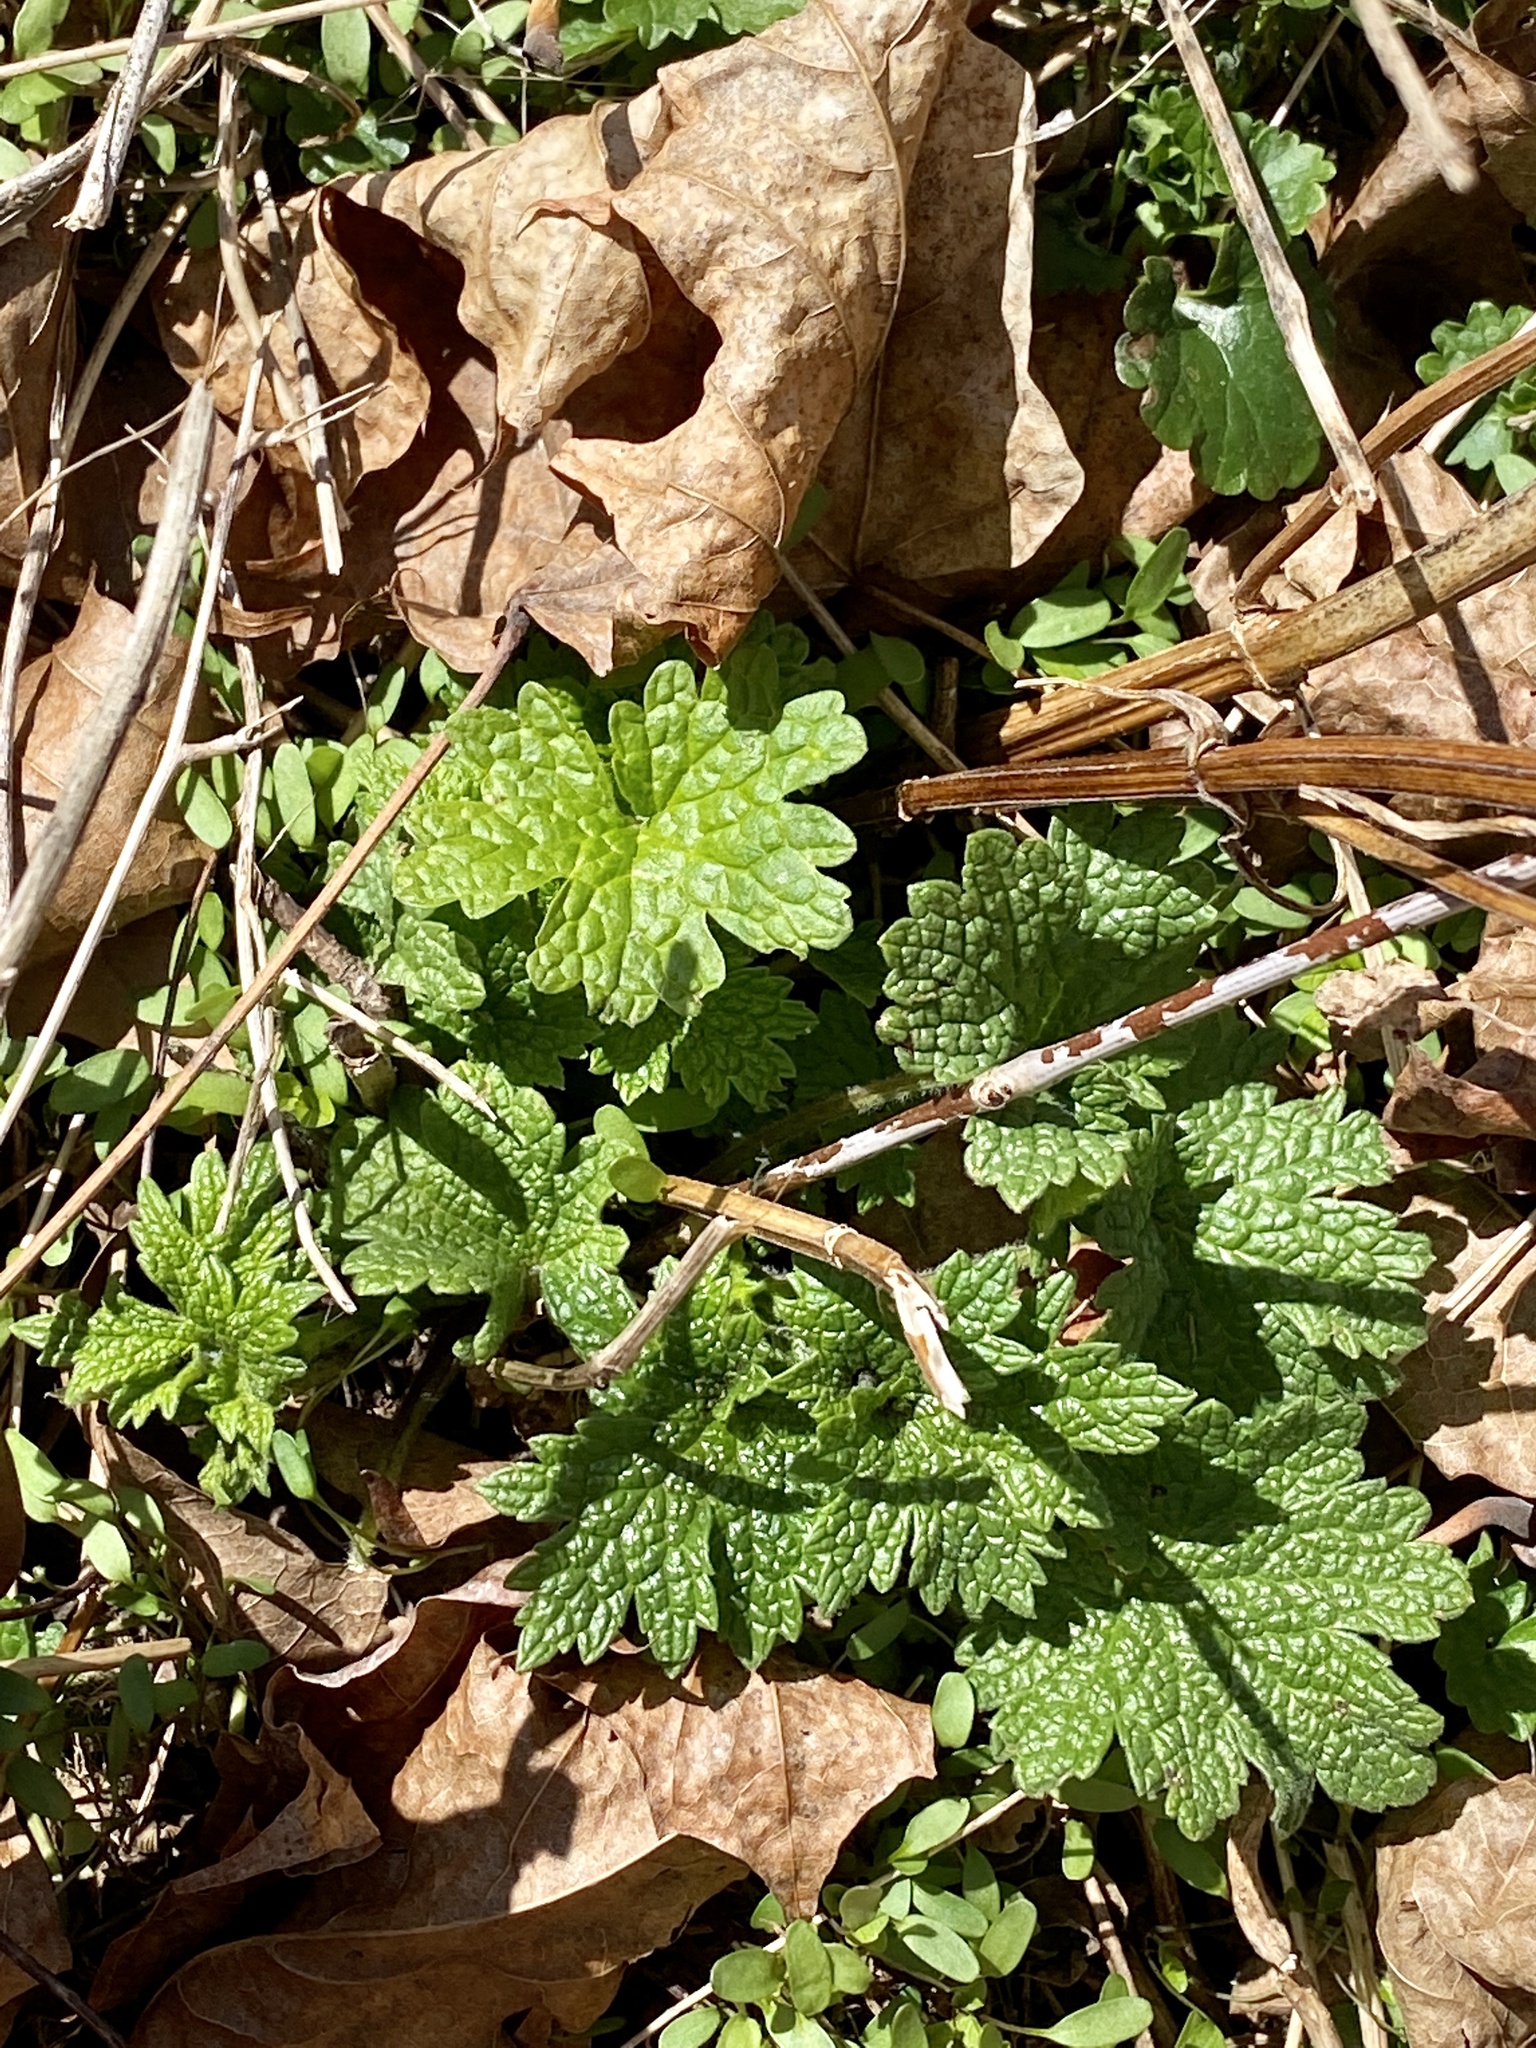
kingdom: Plantae
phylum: Tracheophyta
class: Magnoliopsida
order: Lamiales
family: Lamiaceae
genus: Leonurus
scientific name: Leonurus cardiaca
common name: Motherwort
